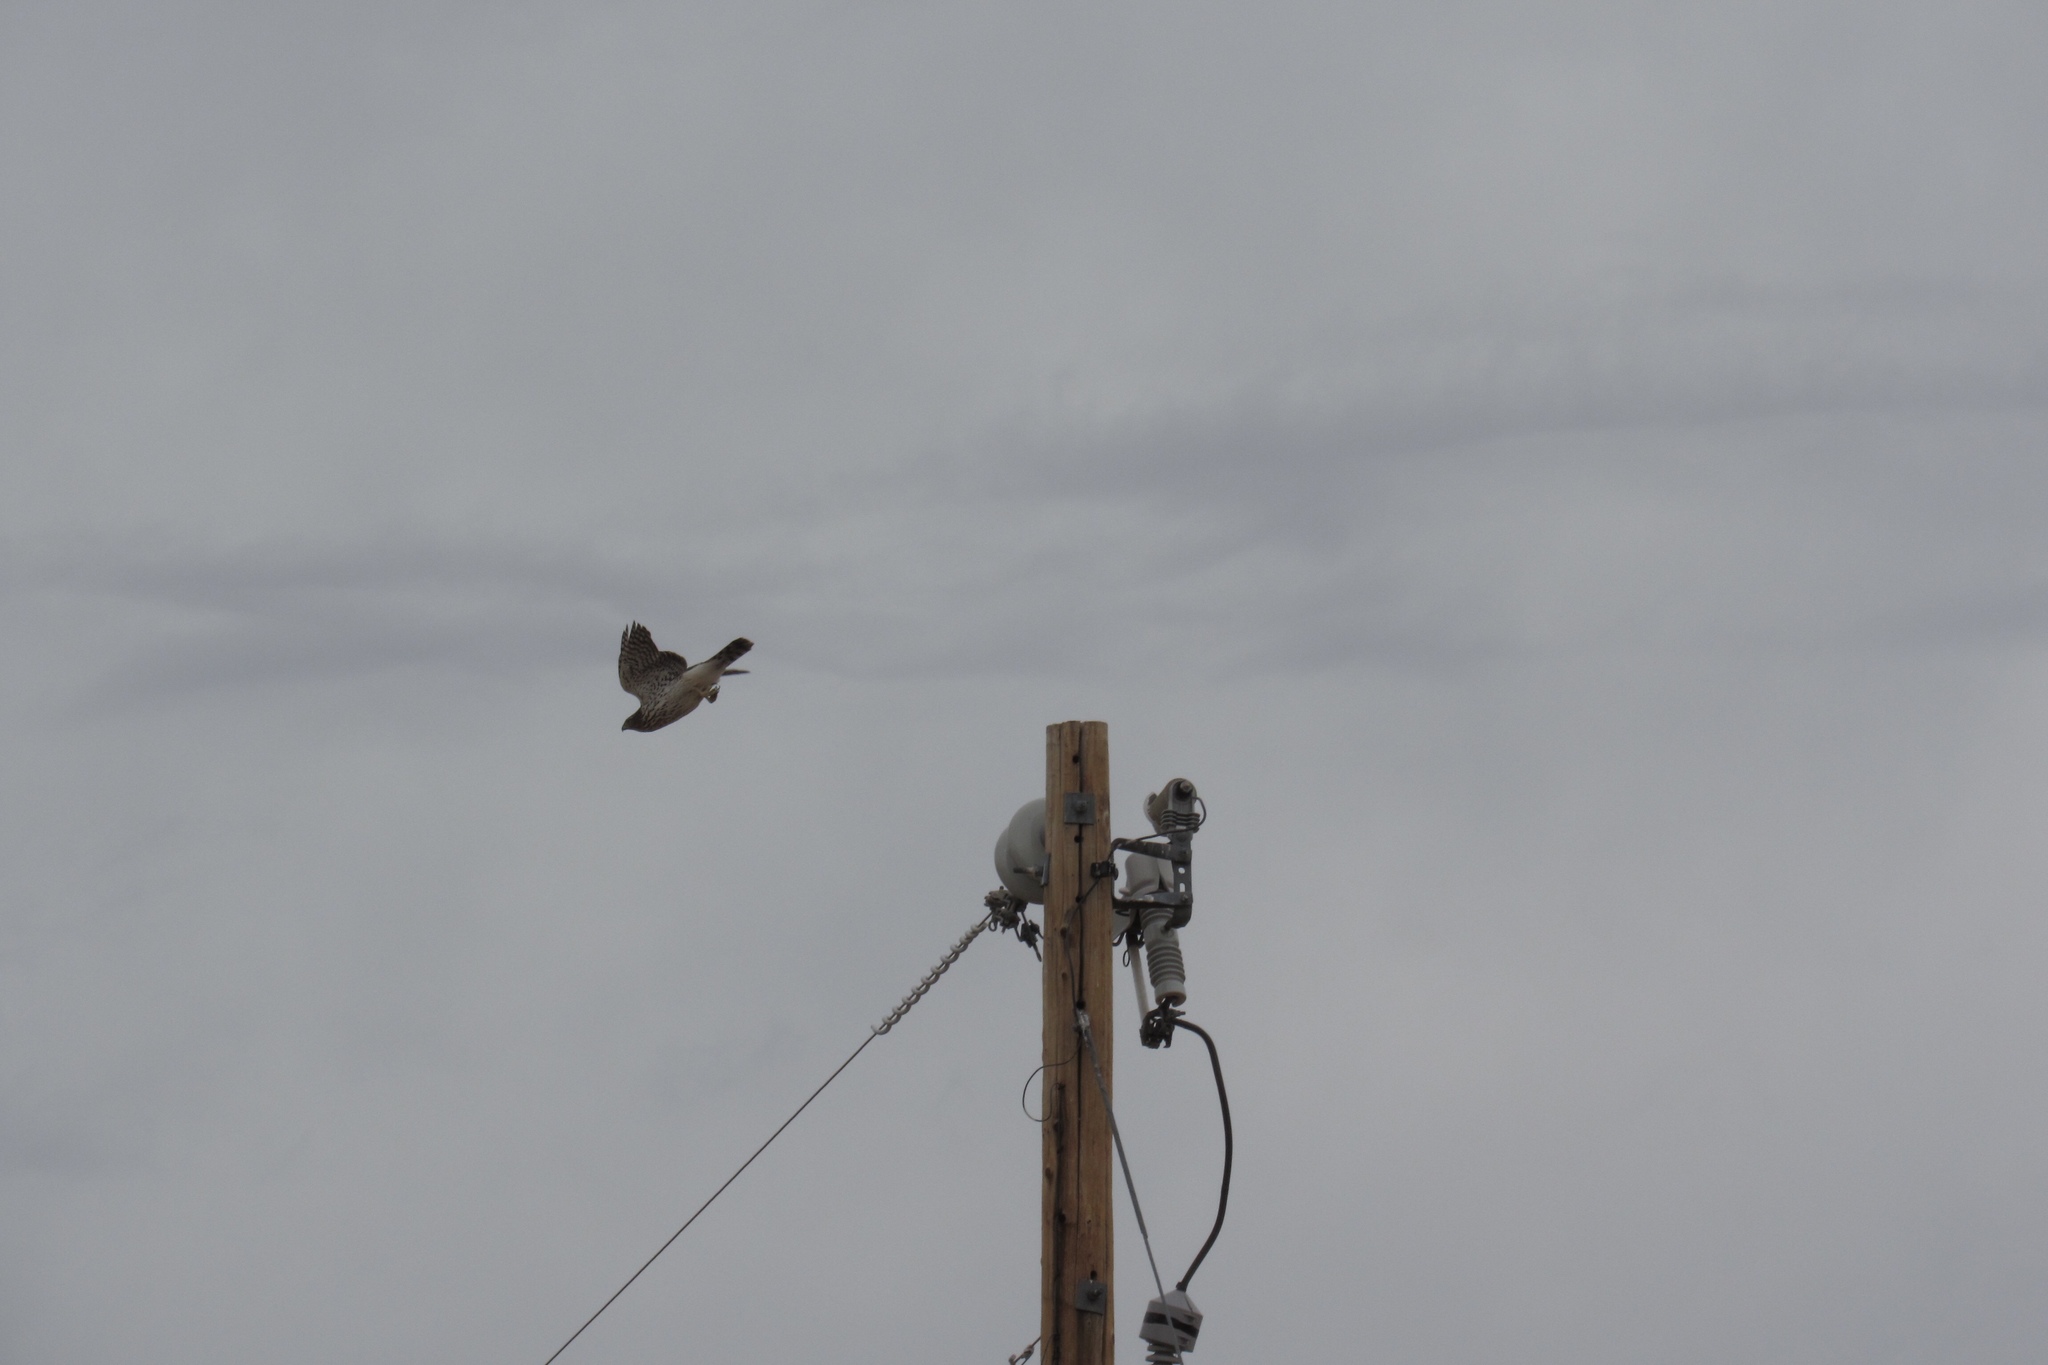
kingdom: Animalia
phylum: Chordata
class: Aves
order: Accipitriformes
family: Accipitridae
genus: Accipiter
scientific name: Accipiter cooperii
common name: Cooper's hawk
